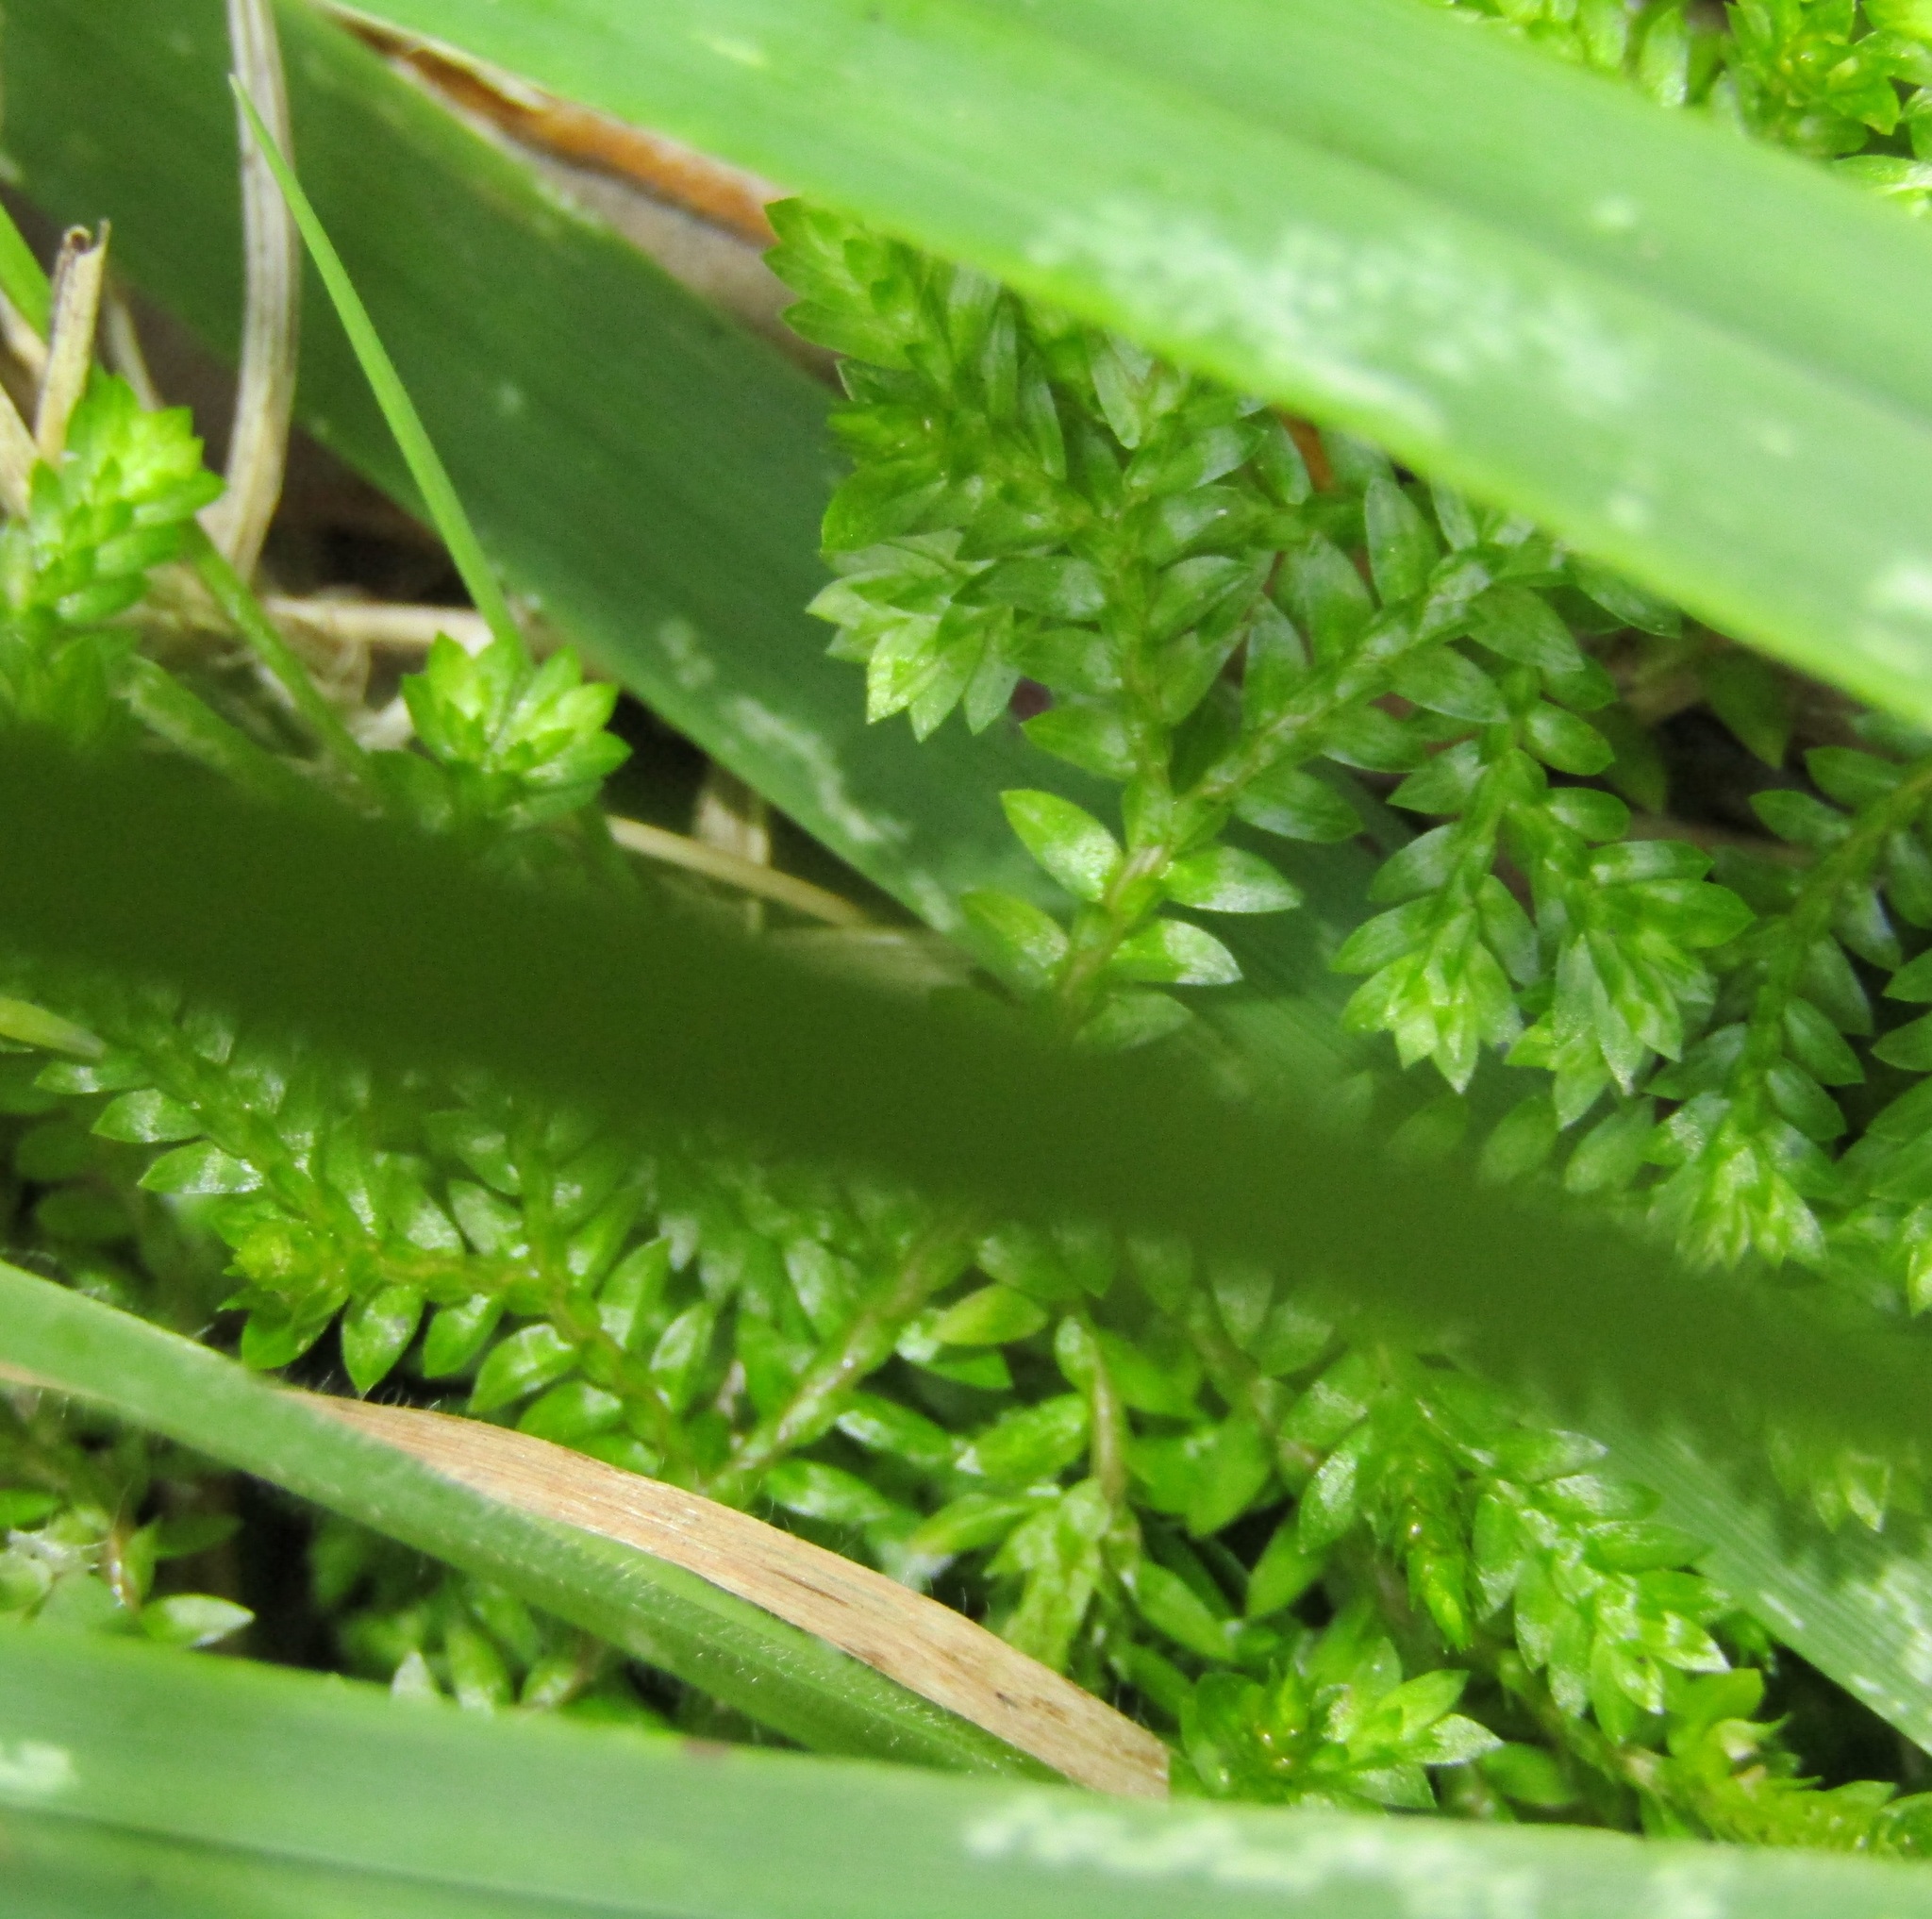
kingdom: Plantae
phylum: Tracheophyta
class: Lycopodiopsida
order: Selaginellales
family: Selaginellaceae
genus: Selaginella
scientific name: Selaginella kraussiana
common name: Krauss' spikemoss
